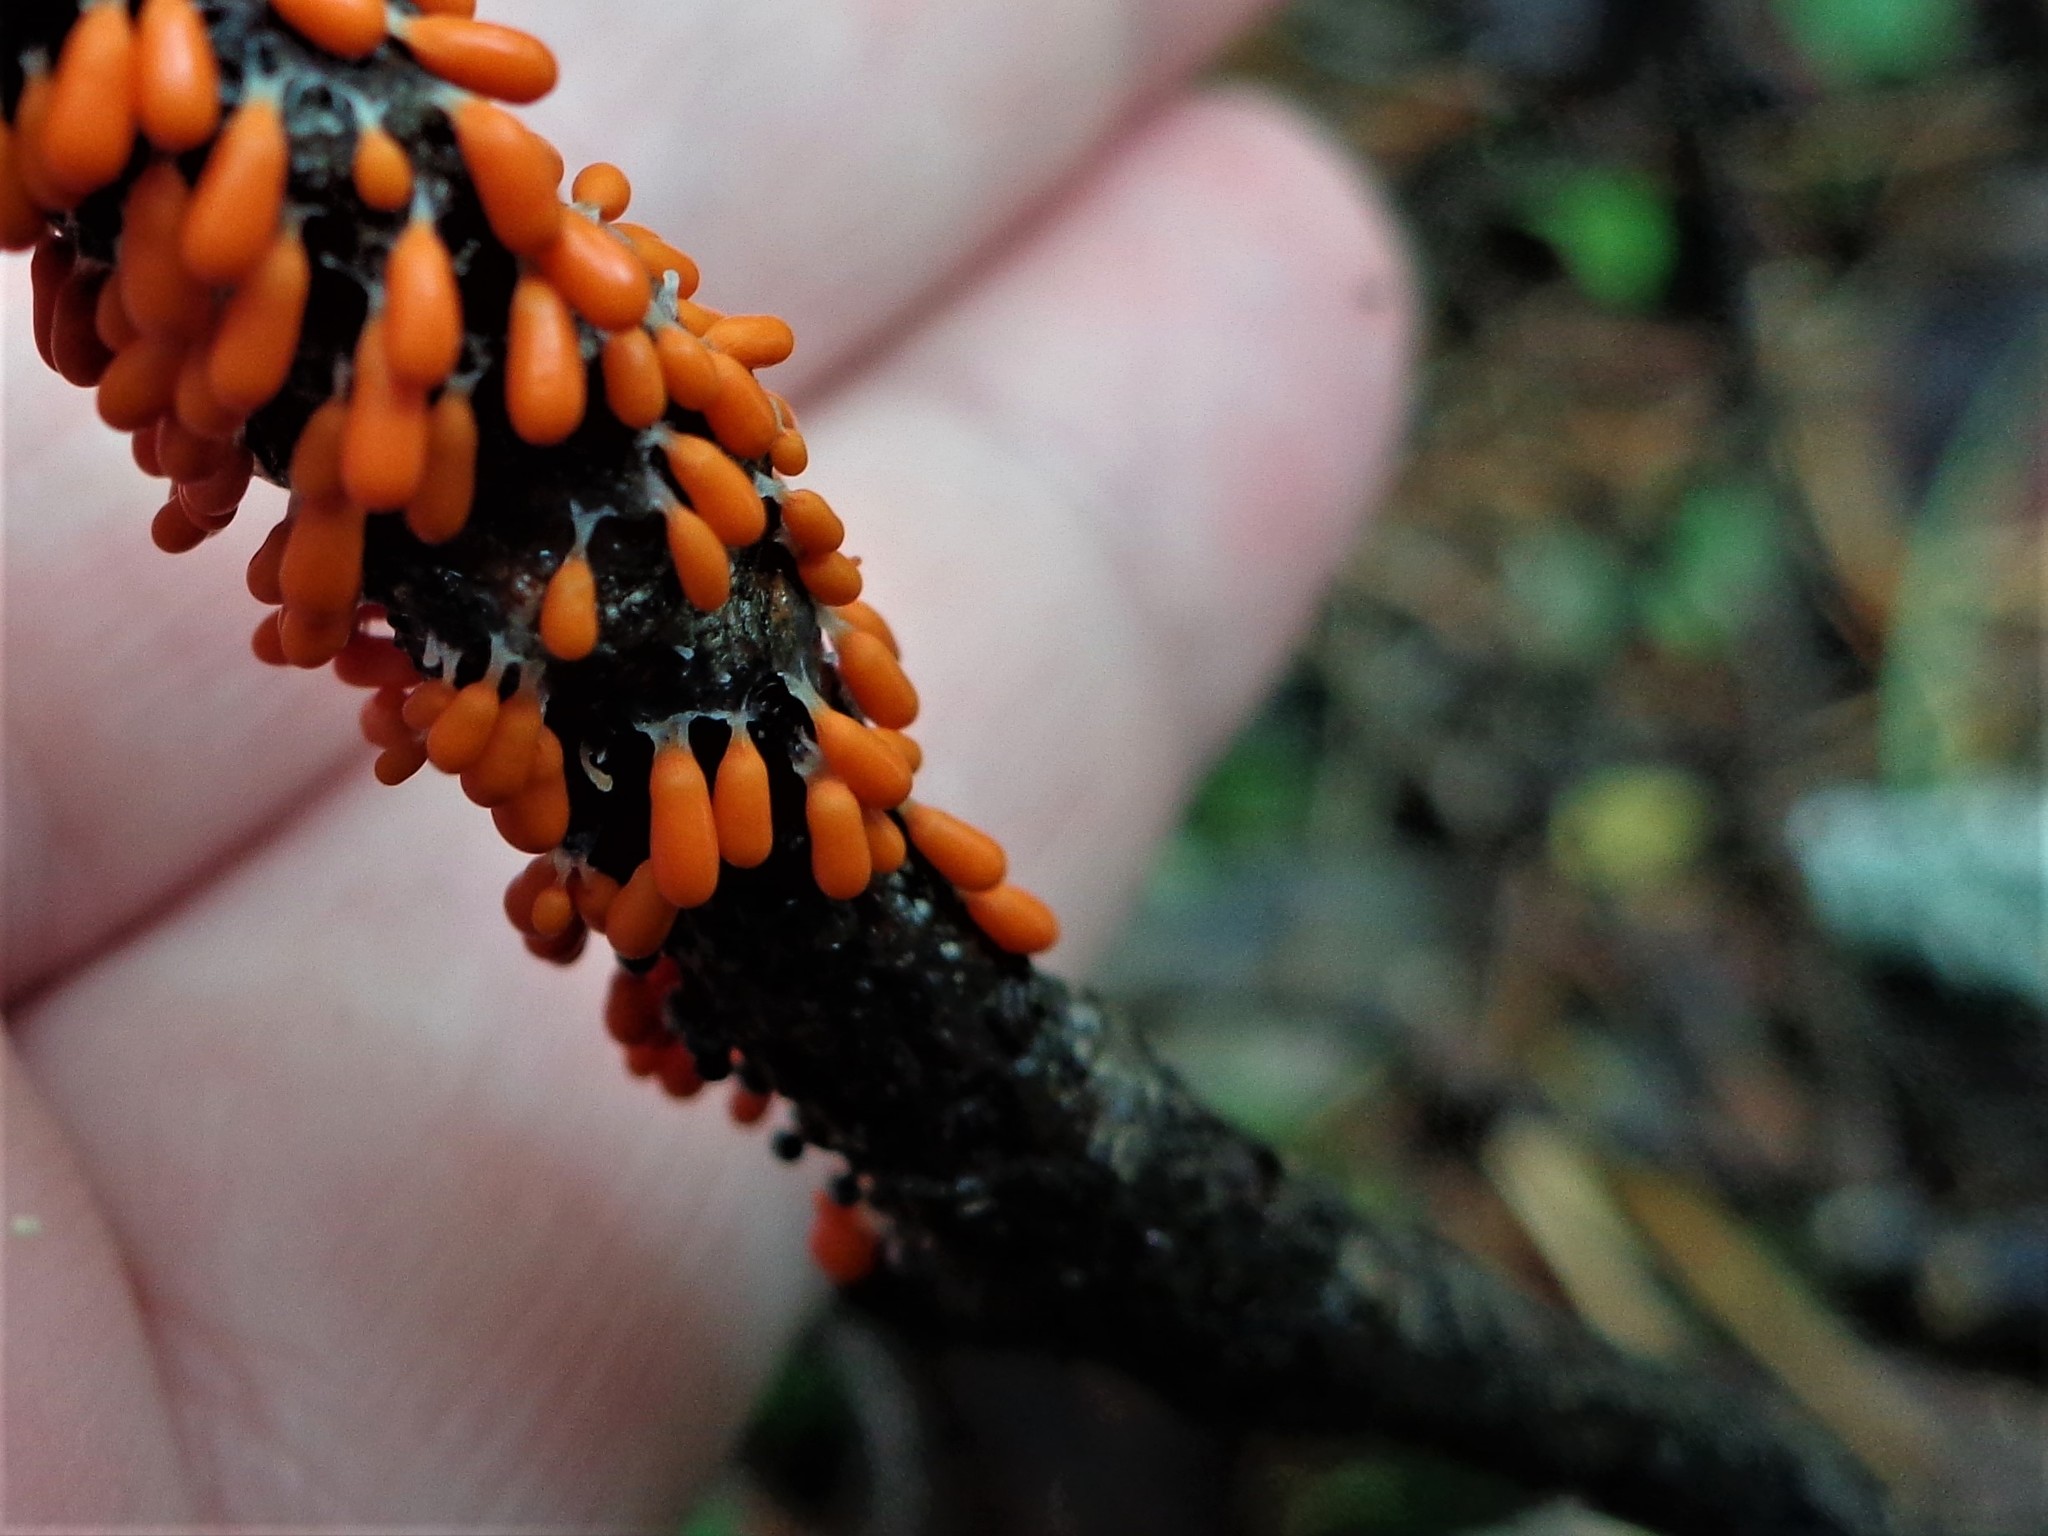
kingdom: Protozoa
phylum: Mycetozoa
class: Myxomycetes
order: Physarales
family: Physaraceae
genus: Leocarpus
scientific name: Leocarpus fragilis
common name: Insect-egg slime
